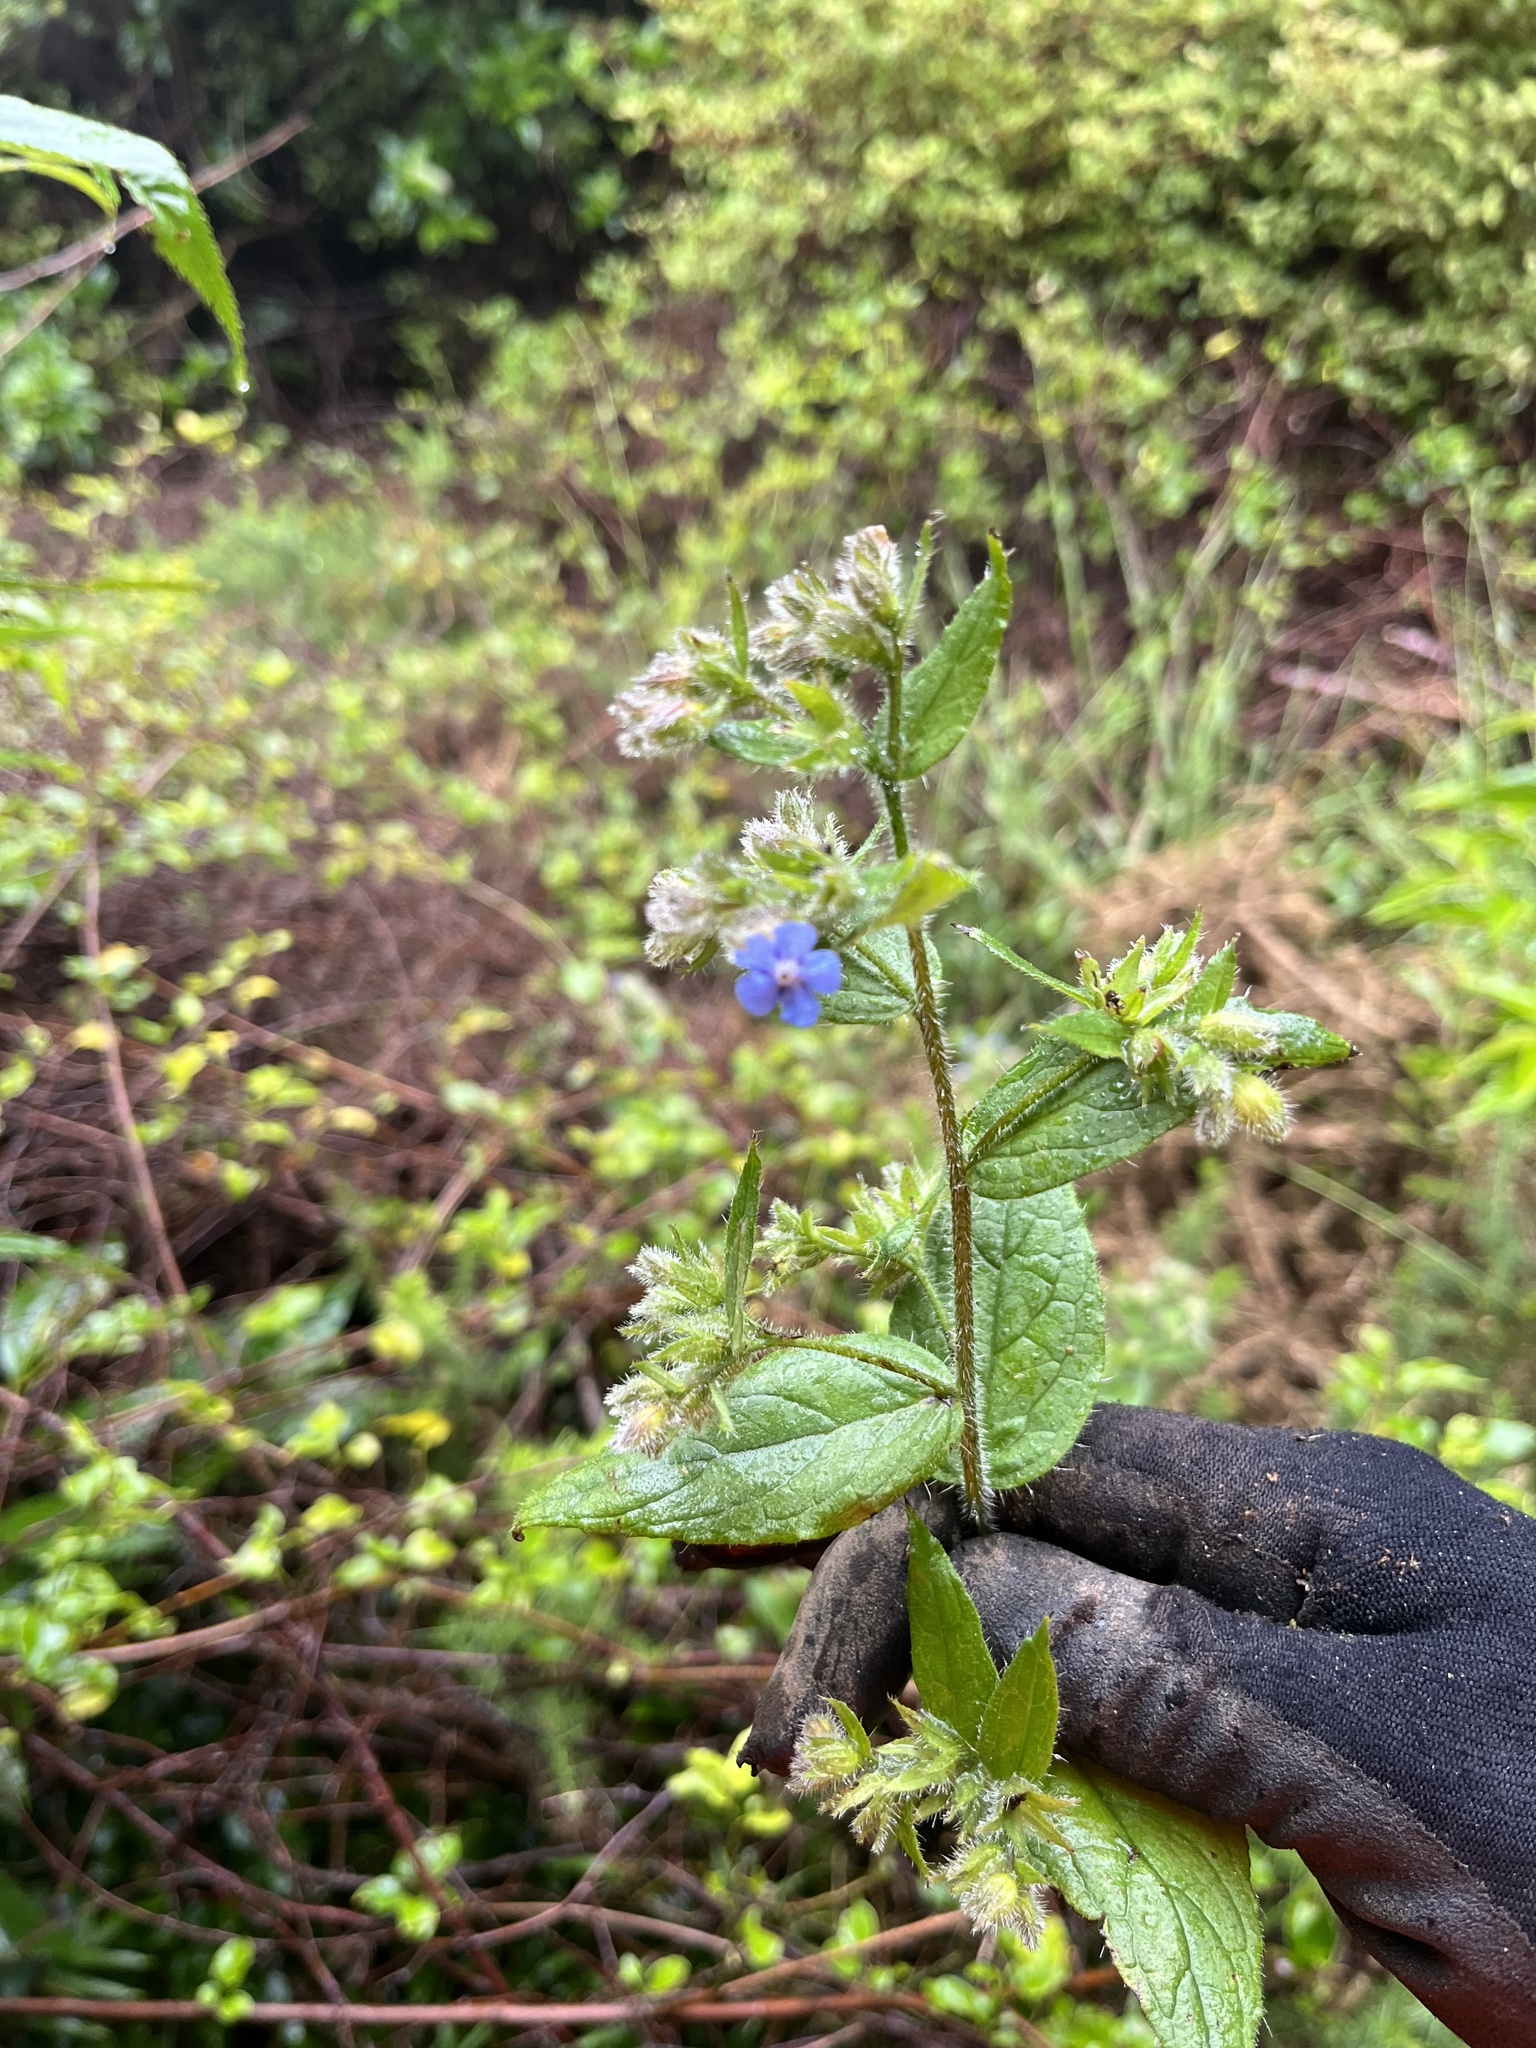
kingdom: Plantae
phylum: Tracheophyta
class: Magnoliopsida
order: Boraginales
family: Boraginaceae
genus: Pentaglottis
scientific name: Pentaglottis sempervirens
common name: Green alkanet
